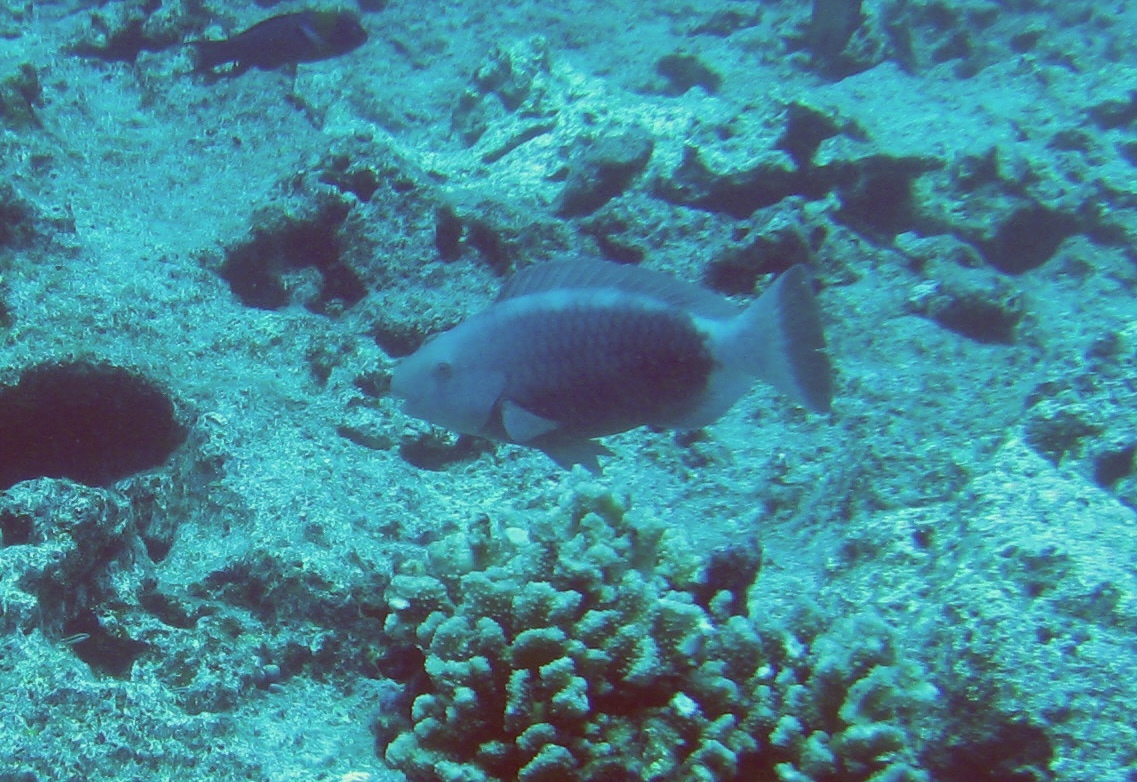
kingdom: Animalia
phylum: Chordata
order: Perciformes
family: Scaridae
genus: Chlorurus
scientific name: Chlorurus perspicillatus
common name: Spectacled parrotfish
